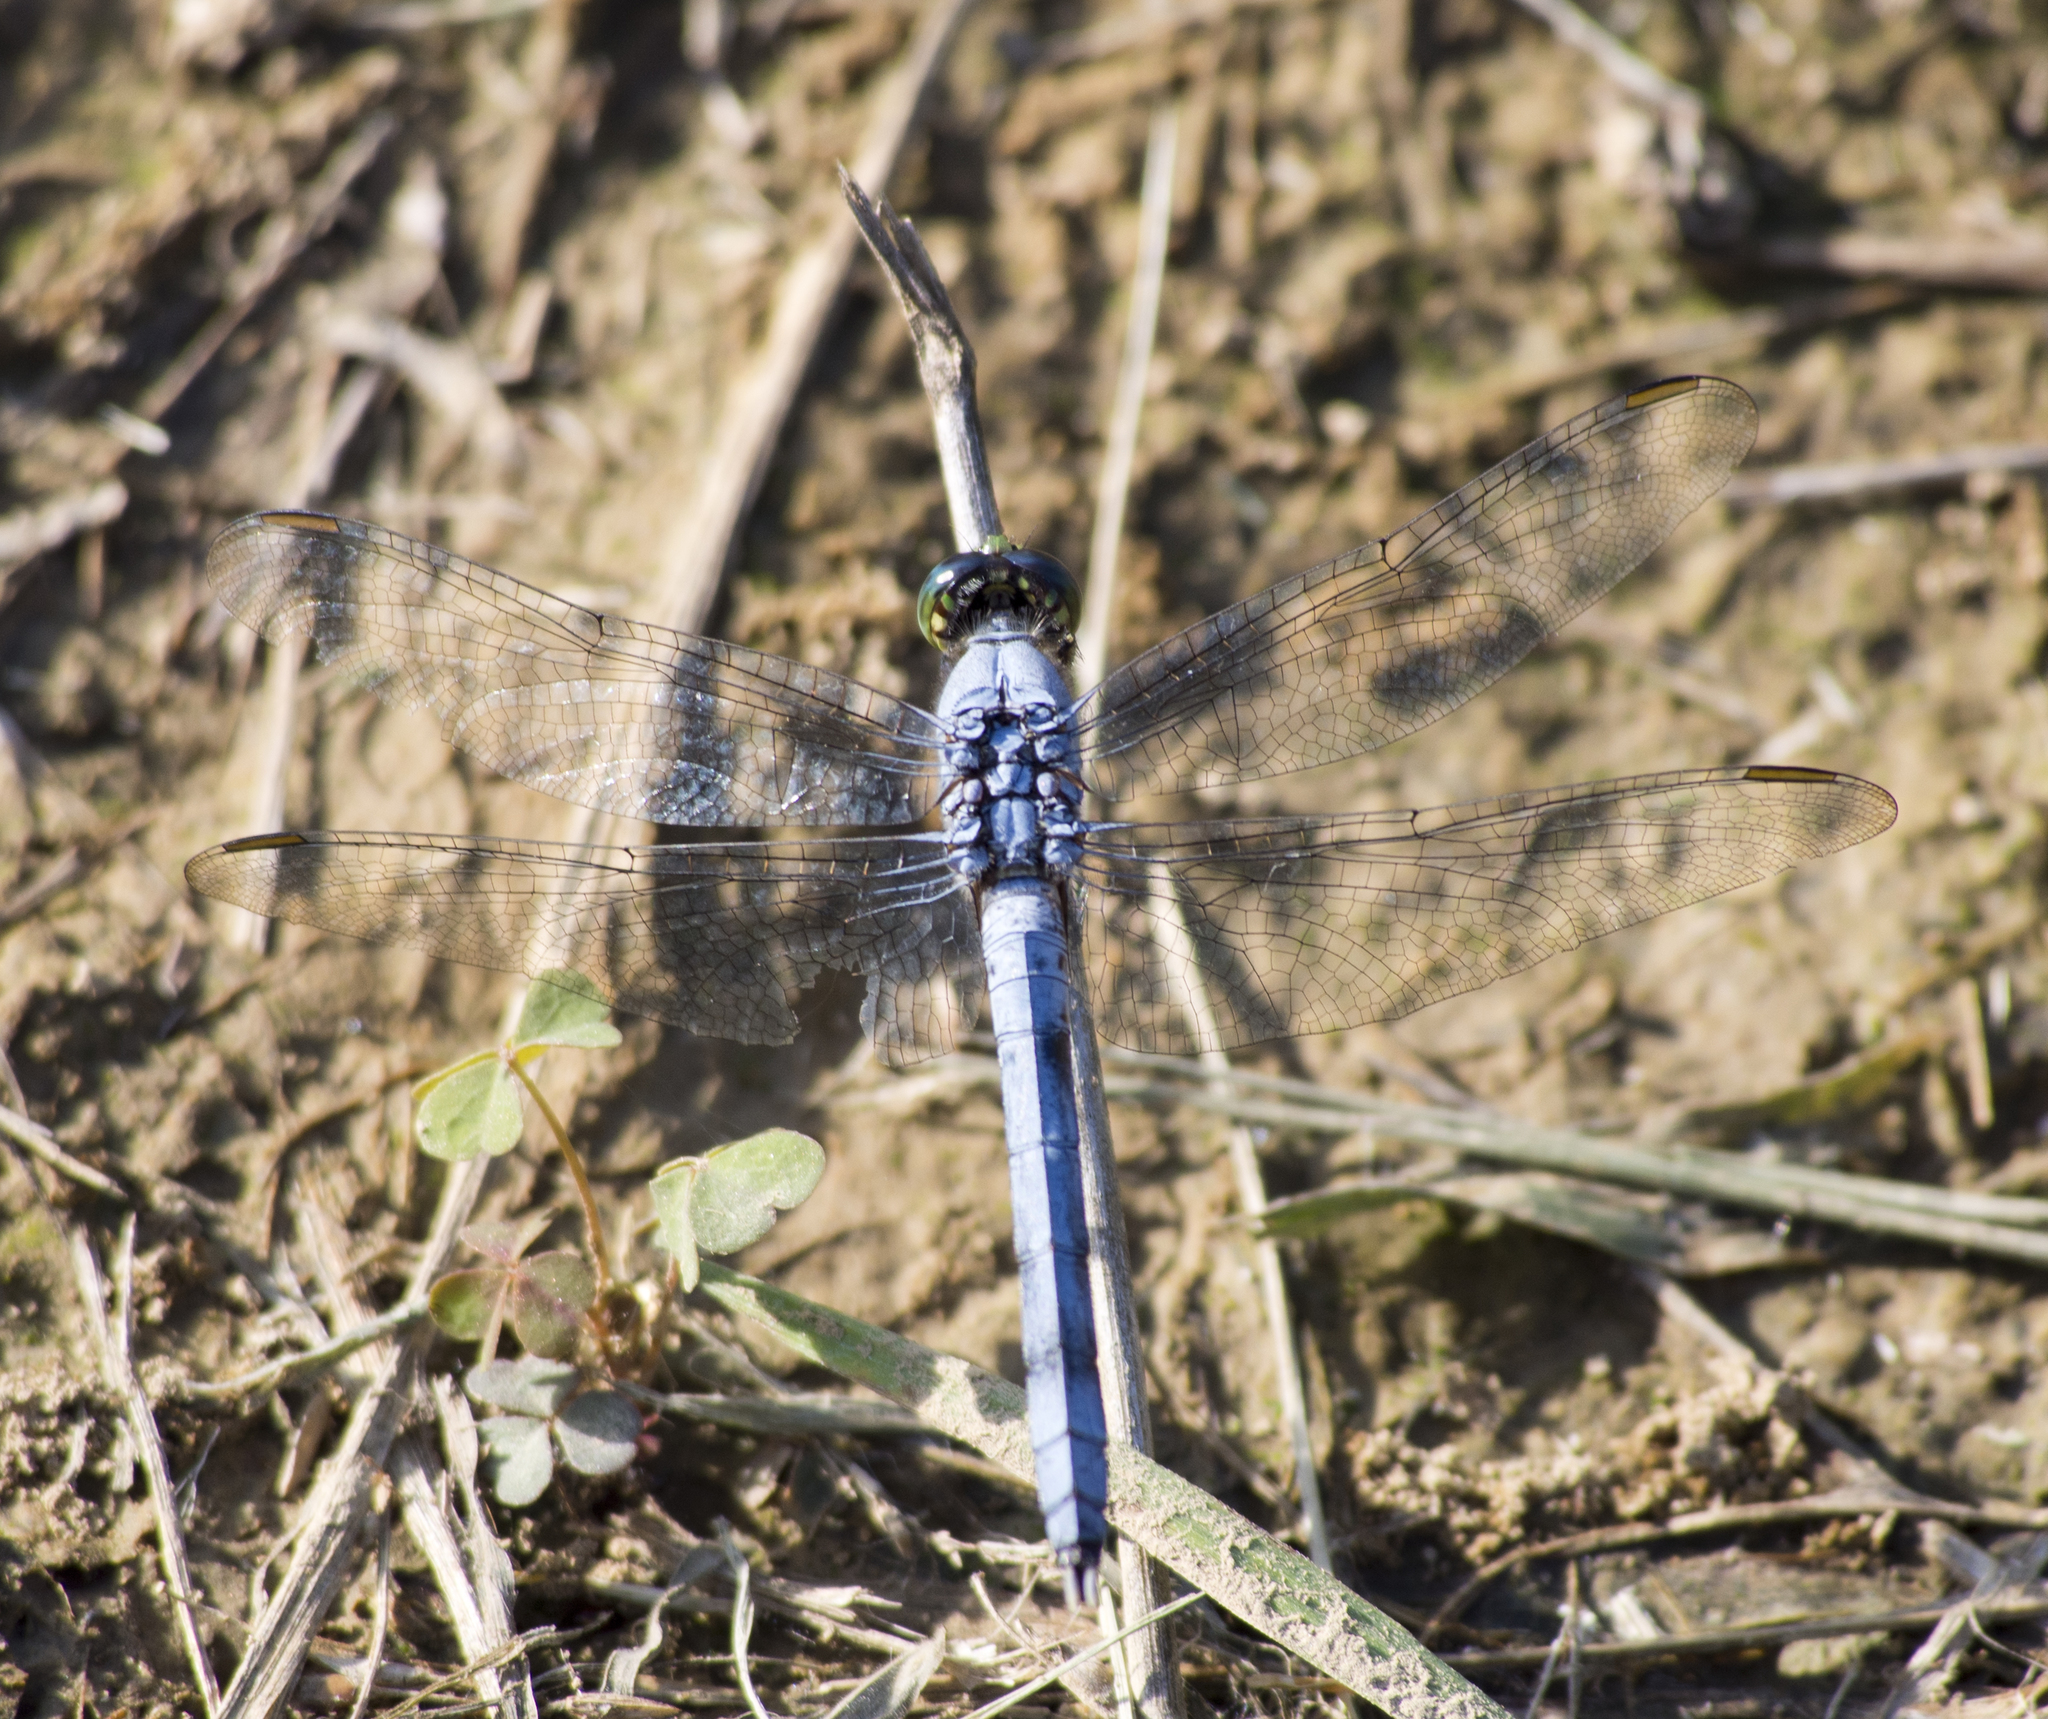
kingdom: Animalia
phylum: Arthropoda
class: Insecta
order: Odonata
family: Libellulidae
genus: Erythemis
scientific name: Erythemis simplicicollis
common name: Eastern pondhawk
